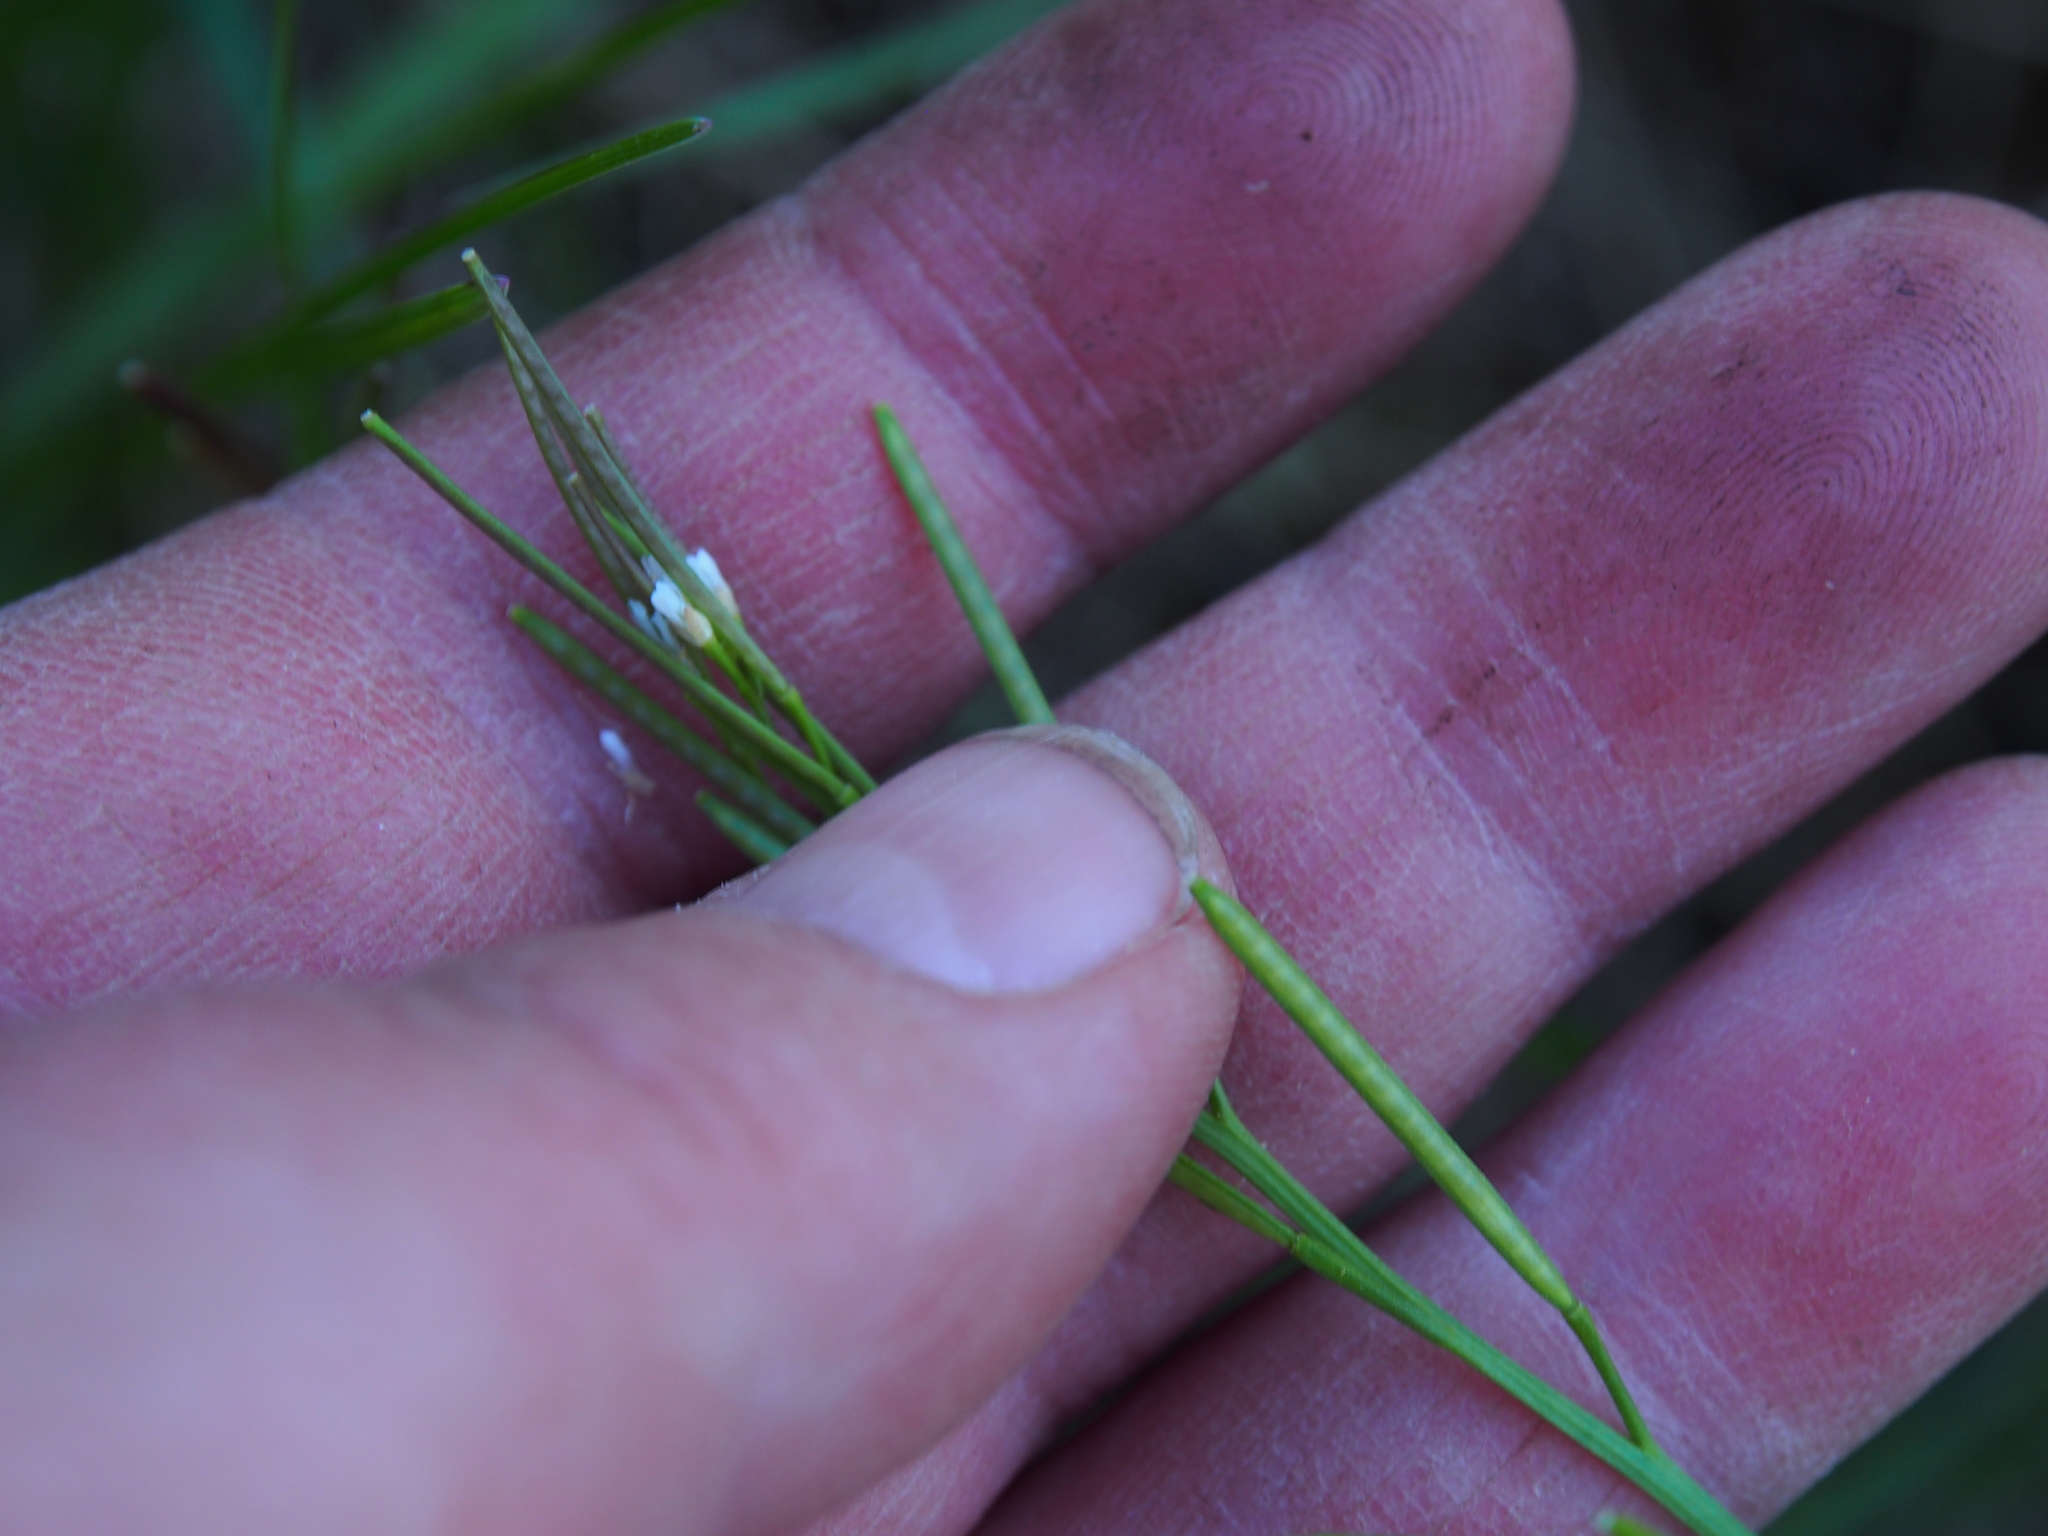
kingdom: Plantae
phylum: Tracheophyta
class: Magnoliopsida
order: Brassicales
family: Brassicaceae
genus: Cardamine
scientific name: Cardamine hirsuta
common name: Hairy bittercress
